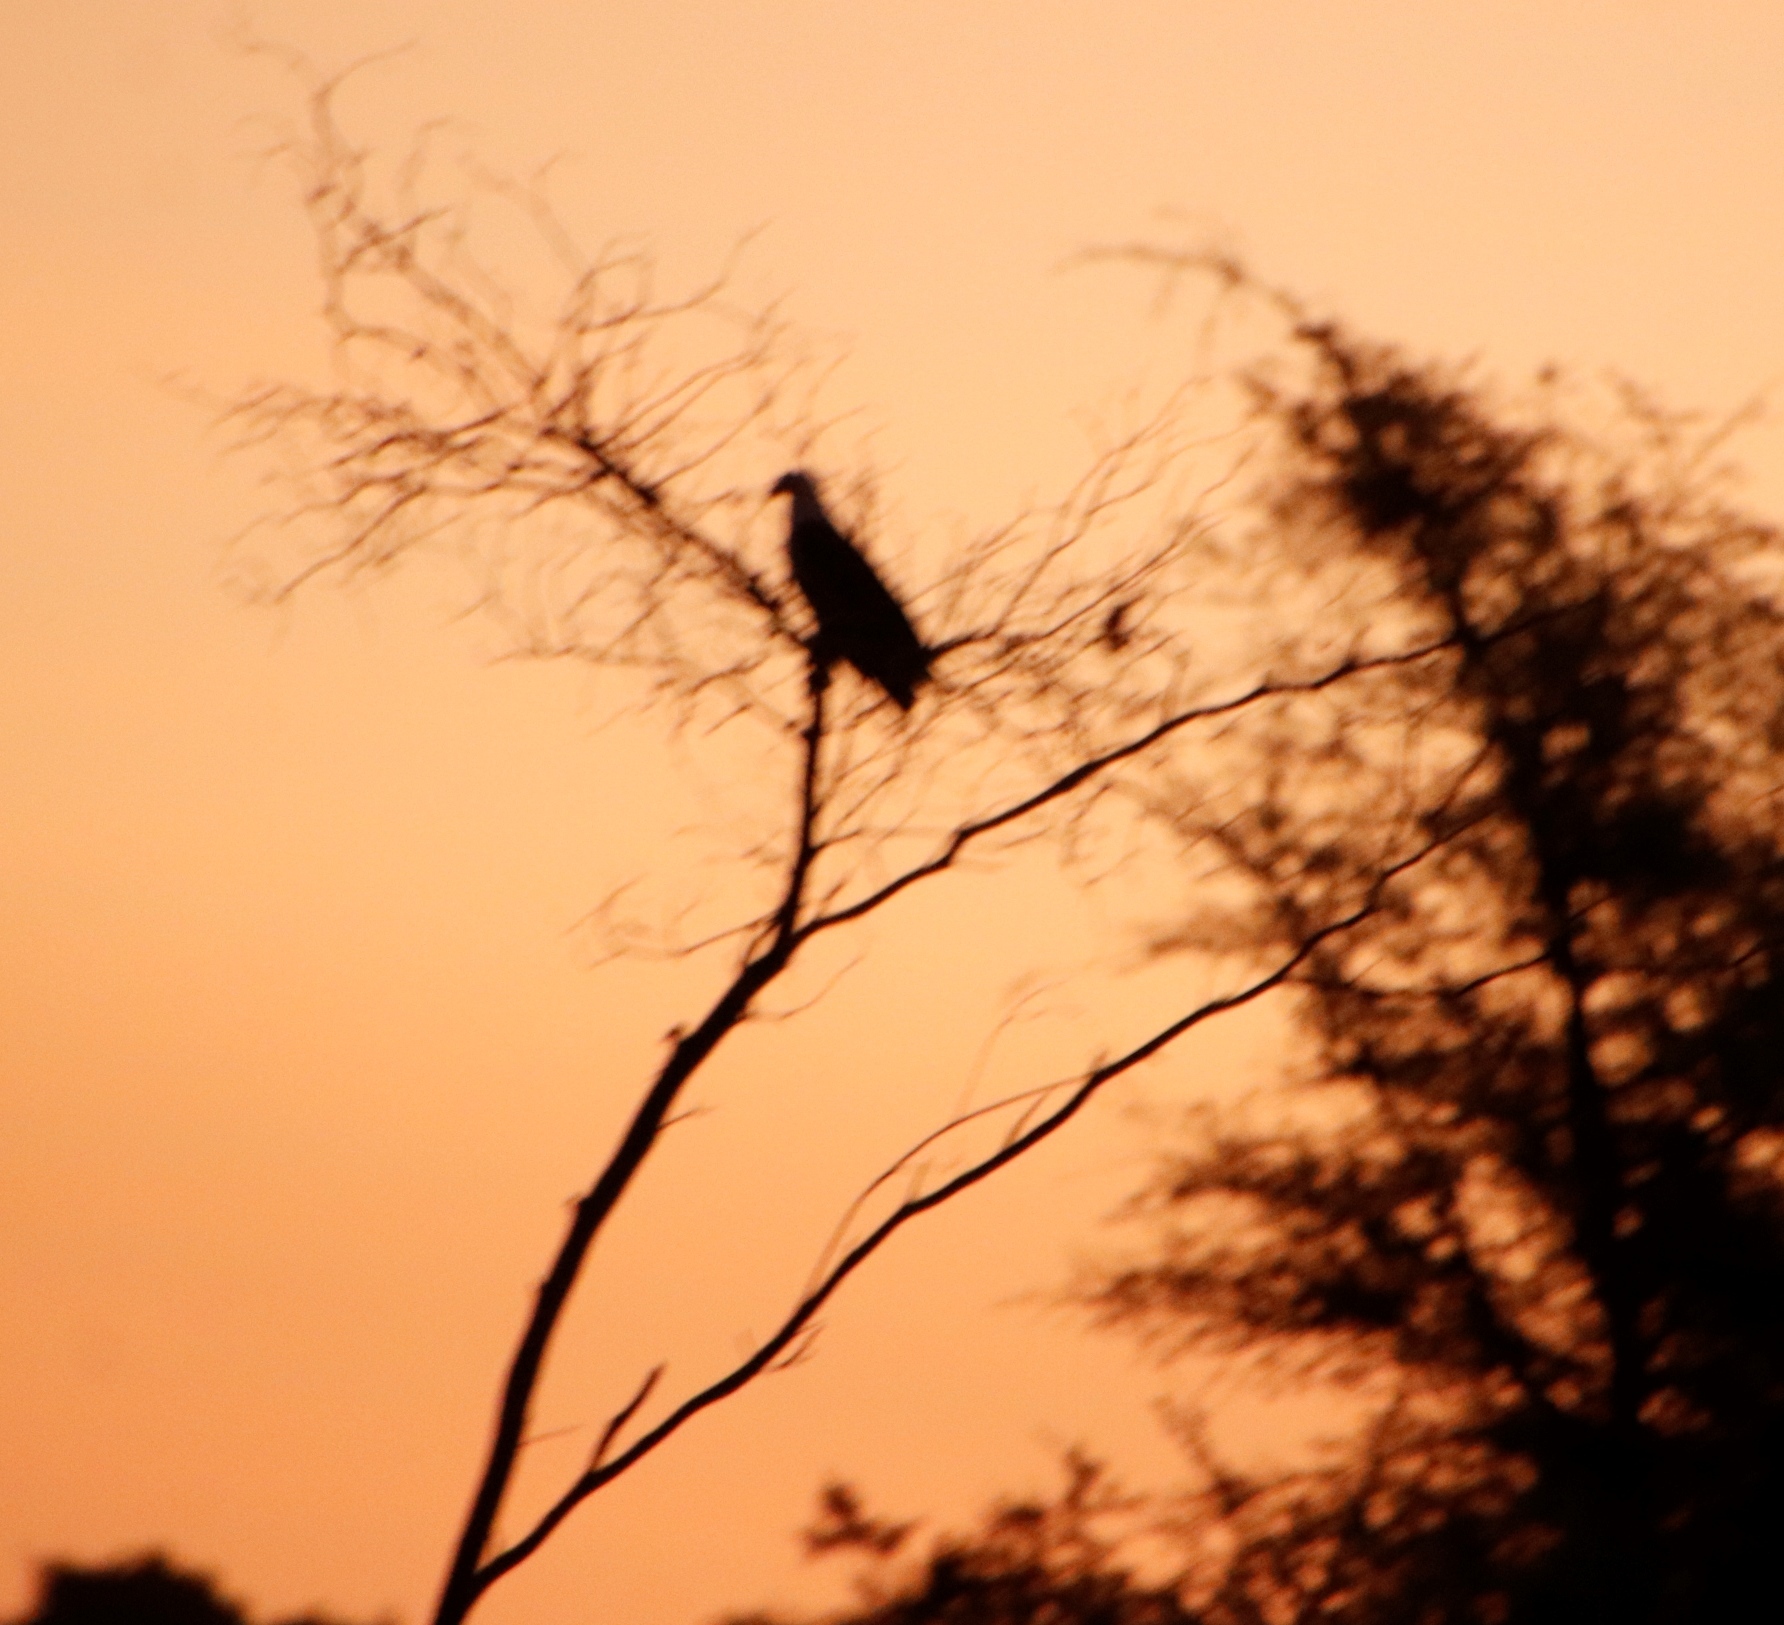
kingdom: Animalia
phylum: Chordata
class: Aves
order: Accipitriformes
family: Accipitridae
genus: Haliaeetus
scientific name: Haliaeetus vocifer
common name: African fish eagle
